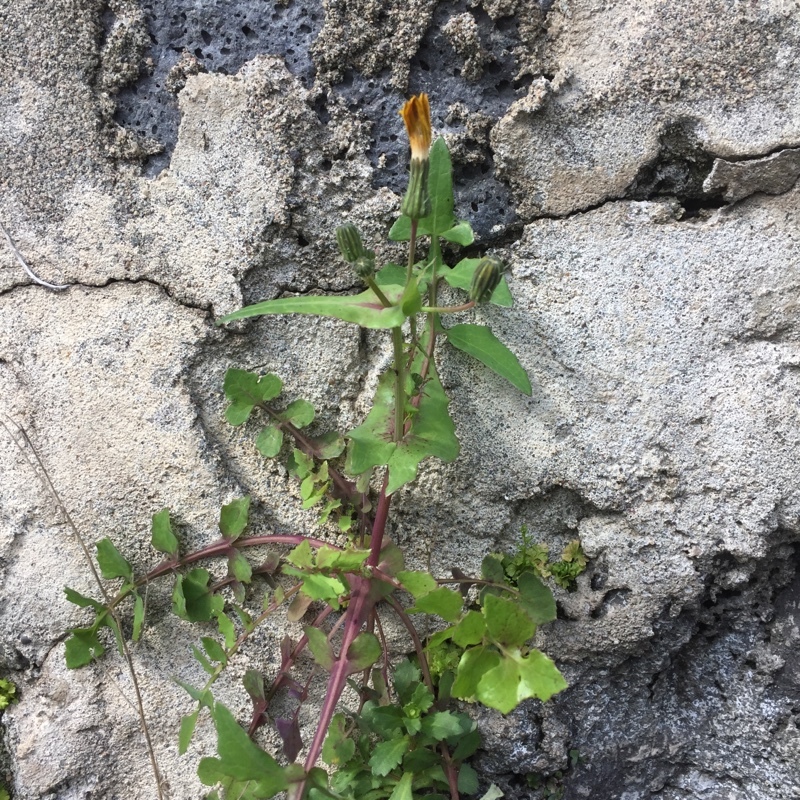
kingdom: Plantae
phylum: Tracheophyta
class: Magnoliopsida
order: Asterales
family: Asteraceae
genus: Sonchus
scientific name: Sonchus oleraceus
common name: Common sowthistle
